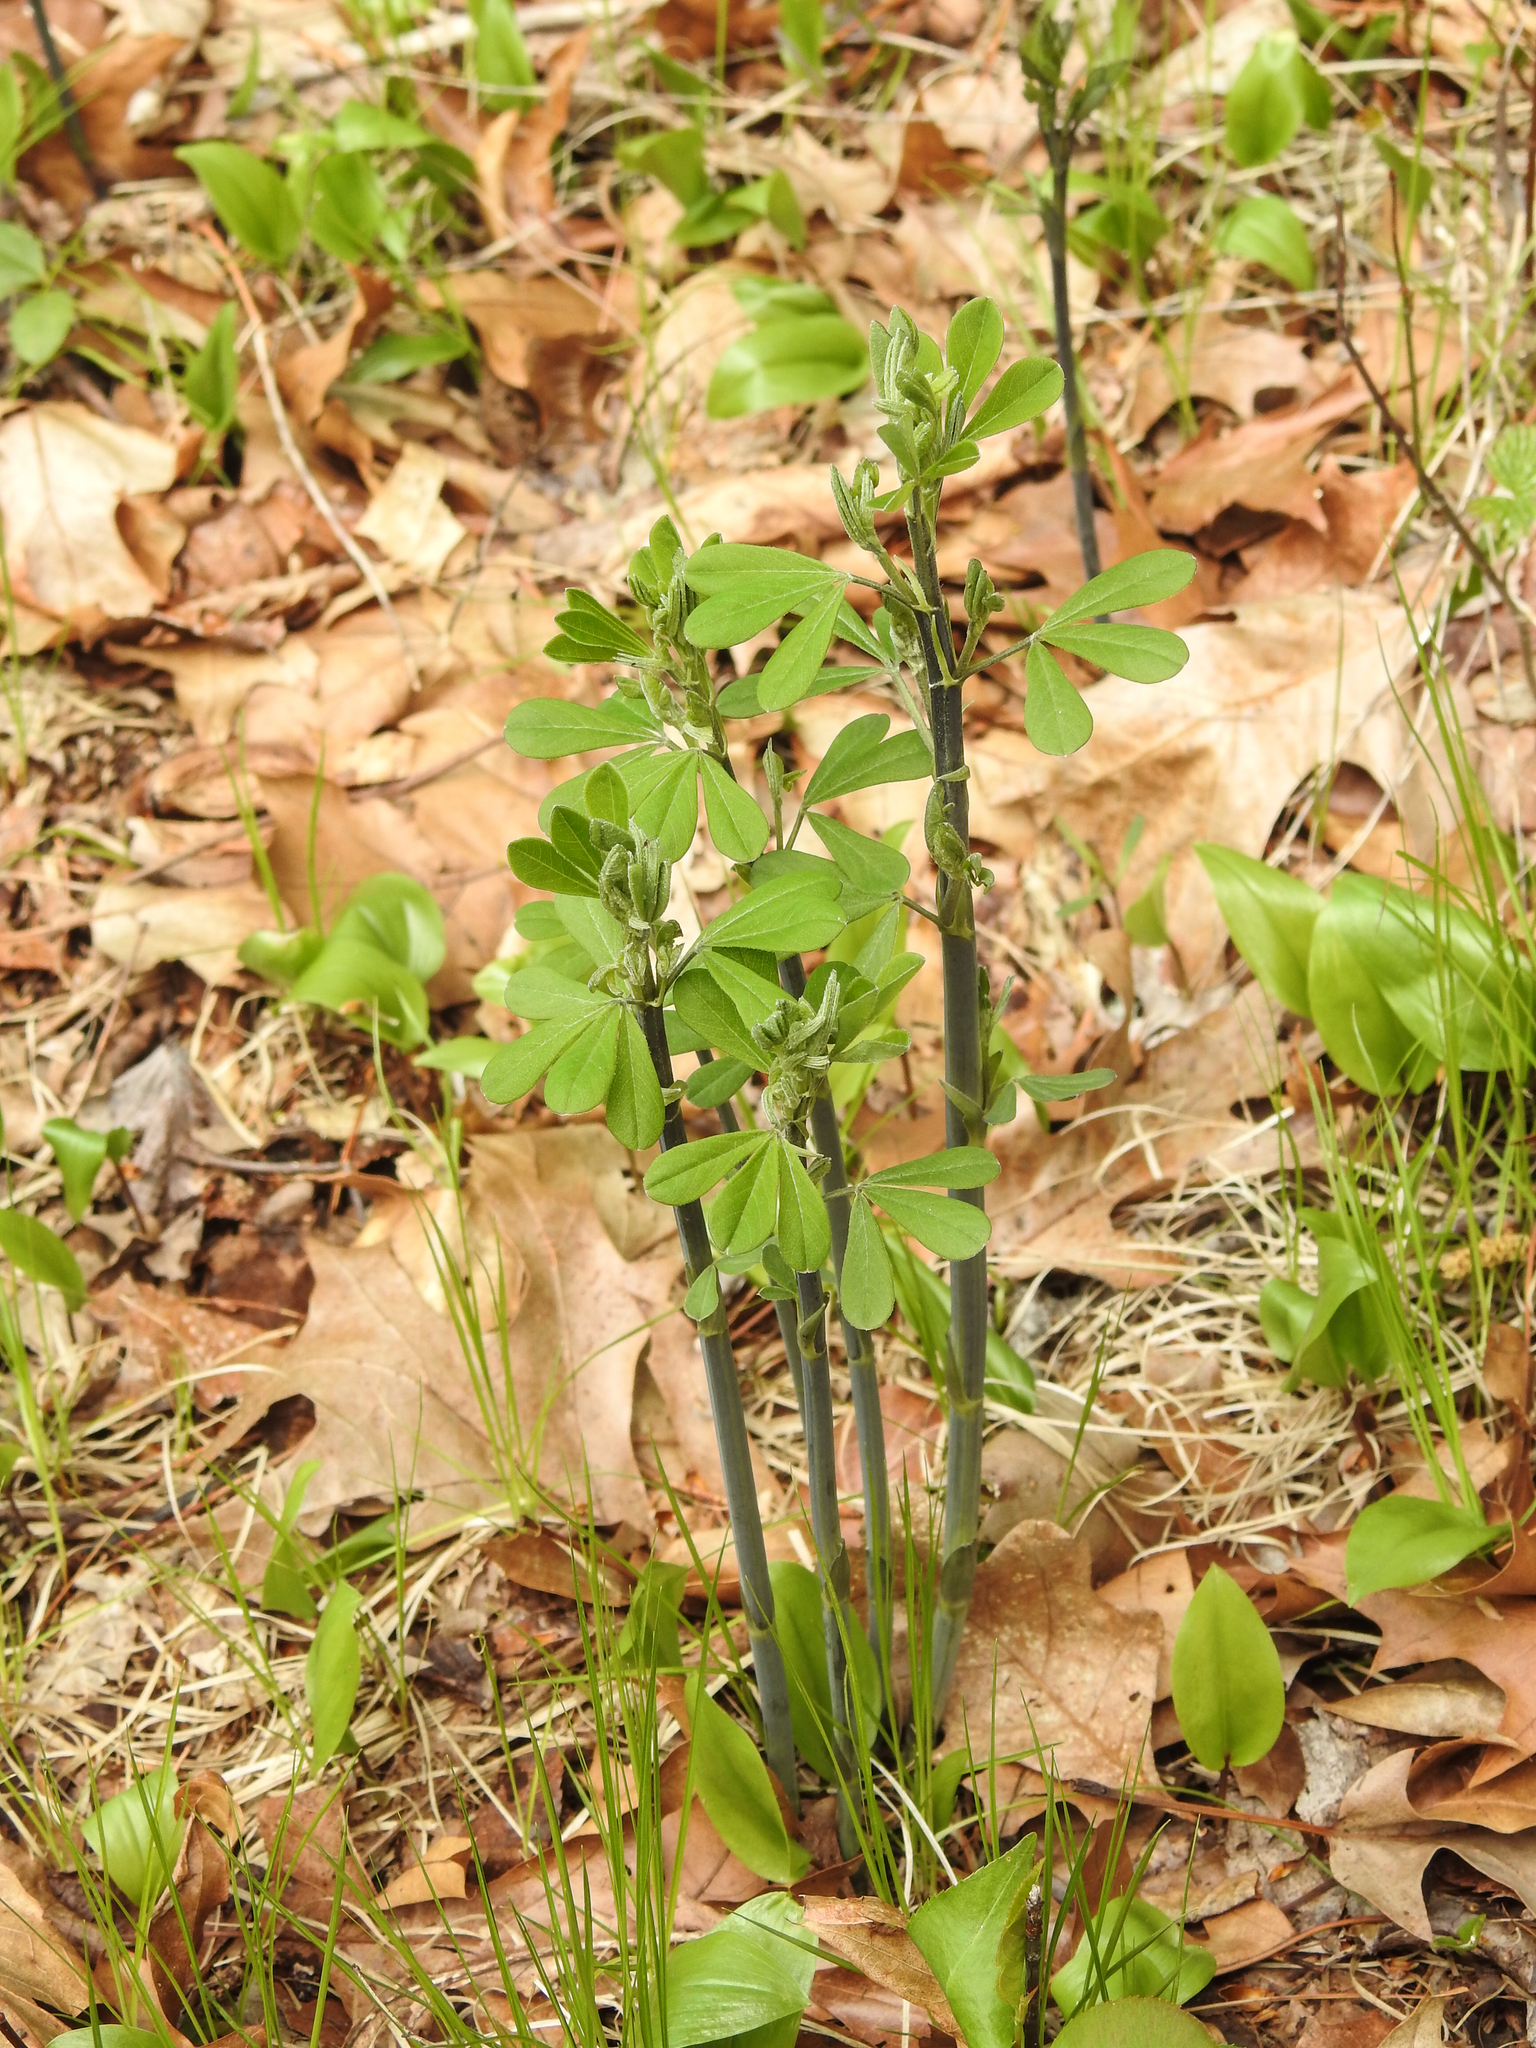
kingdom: Plantae
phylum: Tracheophyta
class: Magnoliopsida
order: Fabales
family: Fabaceae
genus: Baptisia
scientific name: Baptisia tinctoria
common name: Wild indigo
